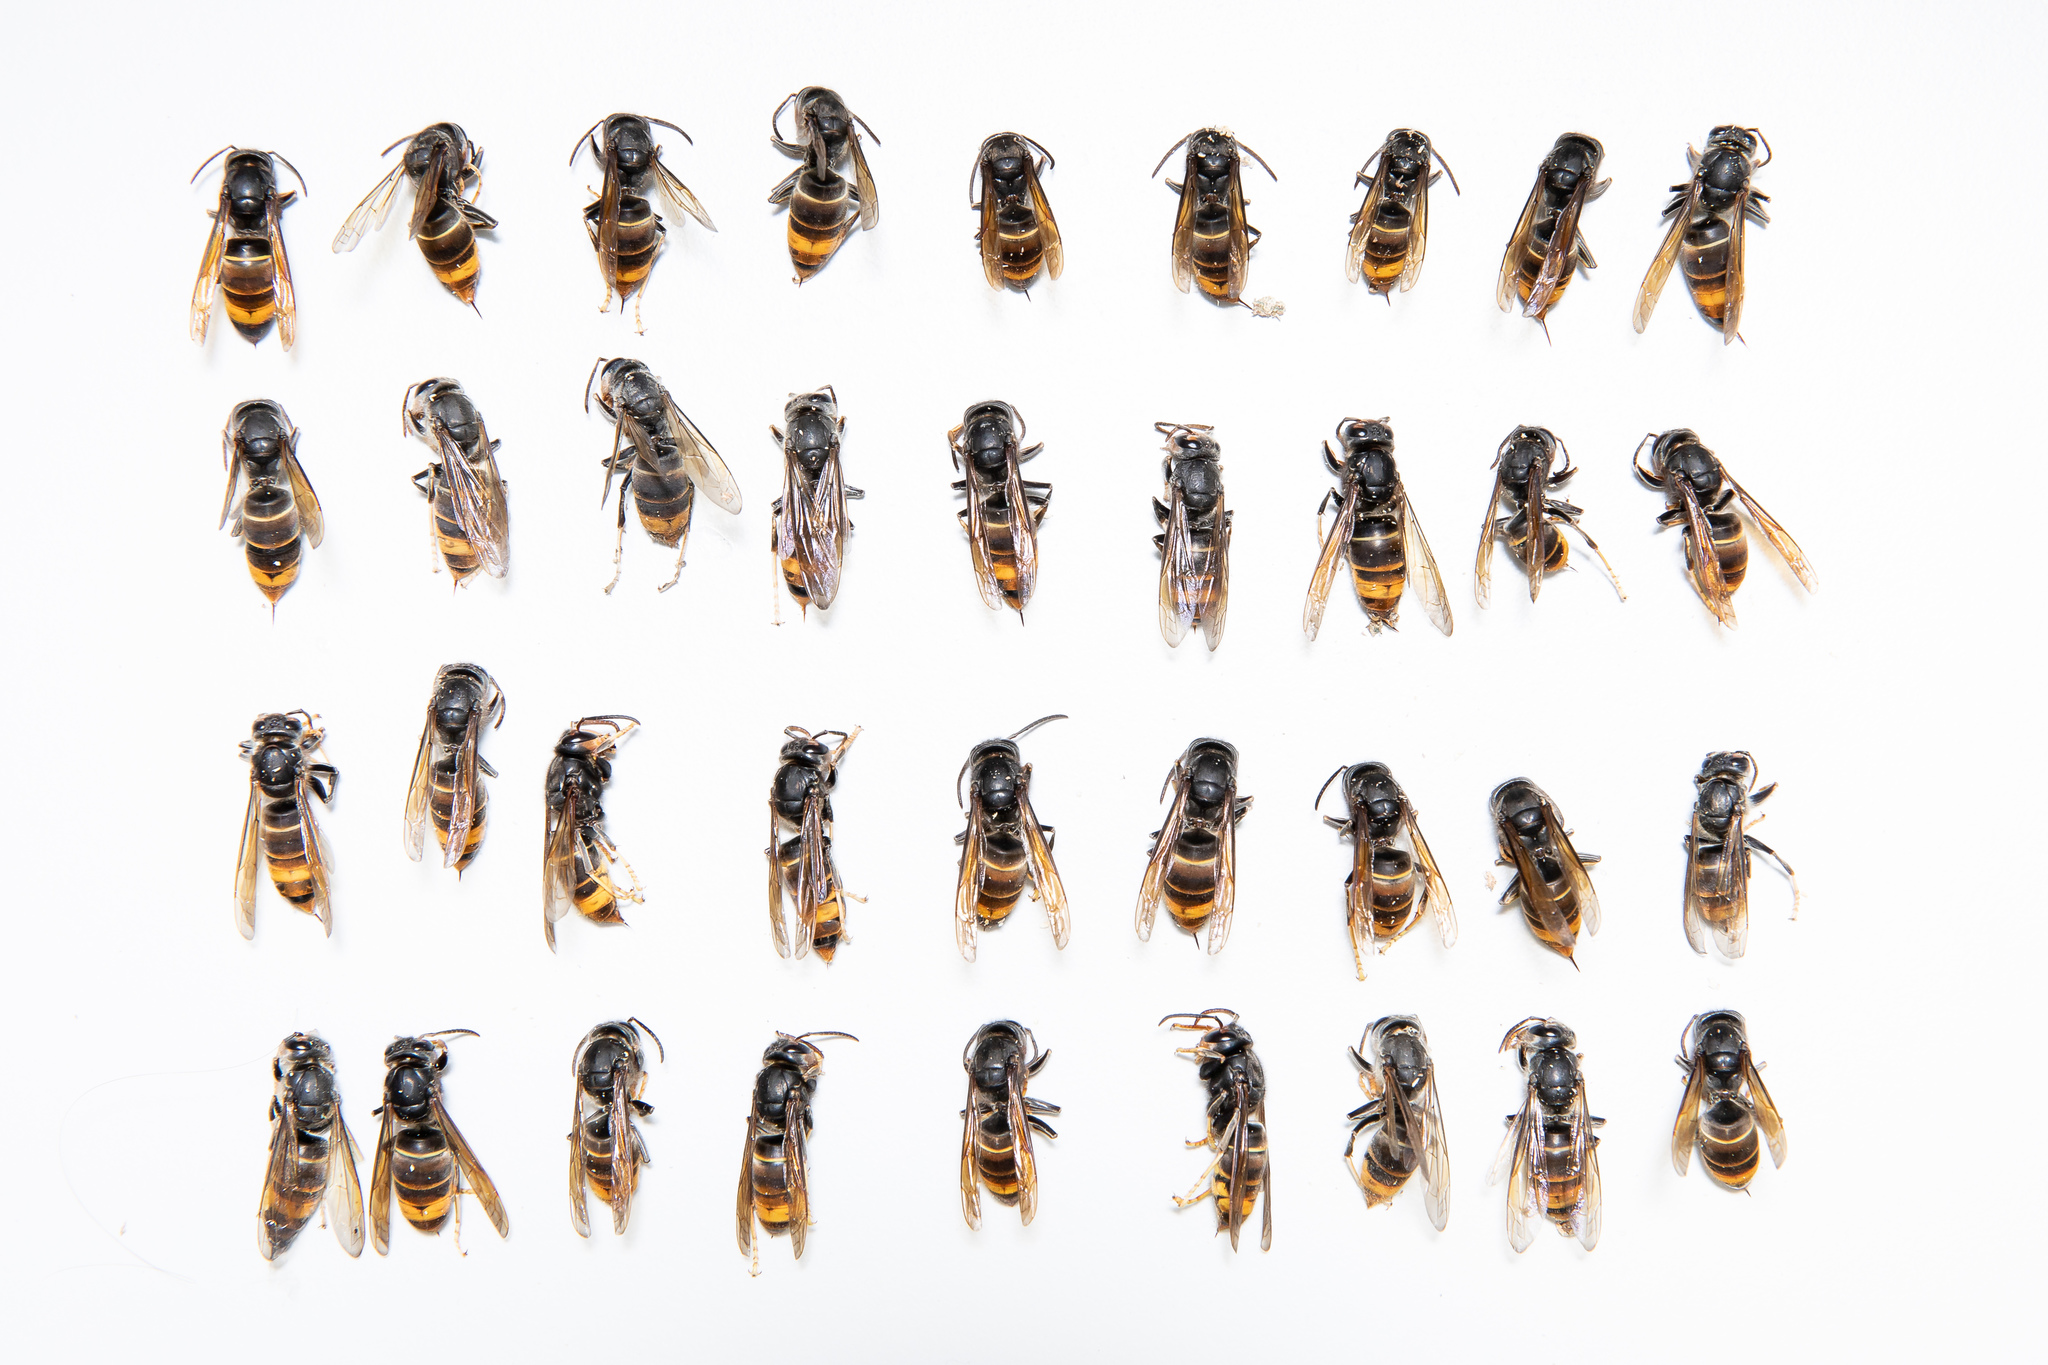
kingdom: Animalia
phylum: Arthropoda
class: Insecta
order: Hymenoptera
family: Vespidae
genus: Vespa
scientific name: Vespa velutina
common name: Asian hornet
